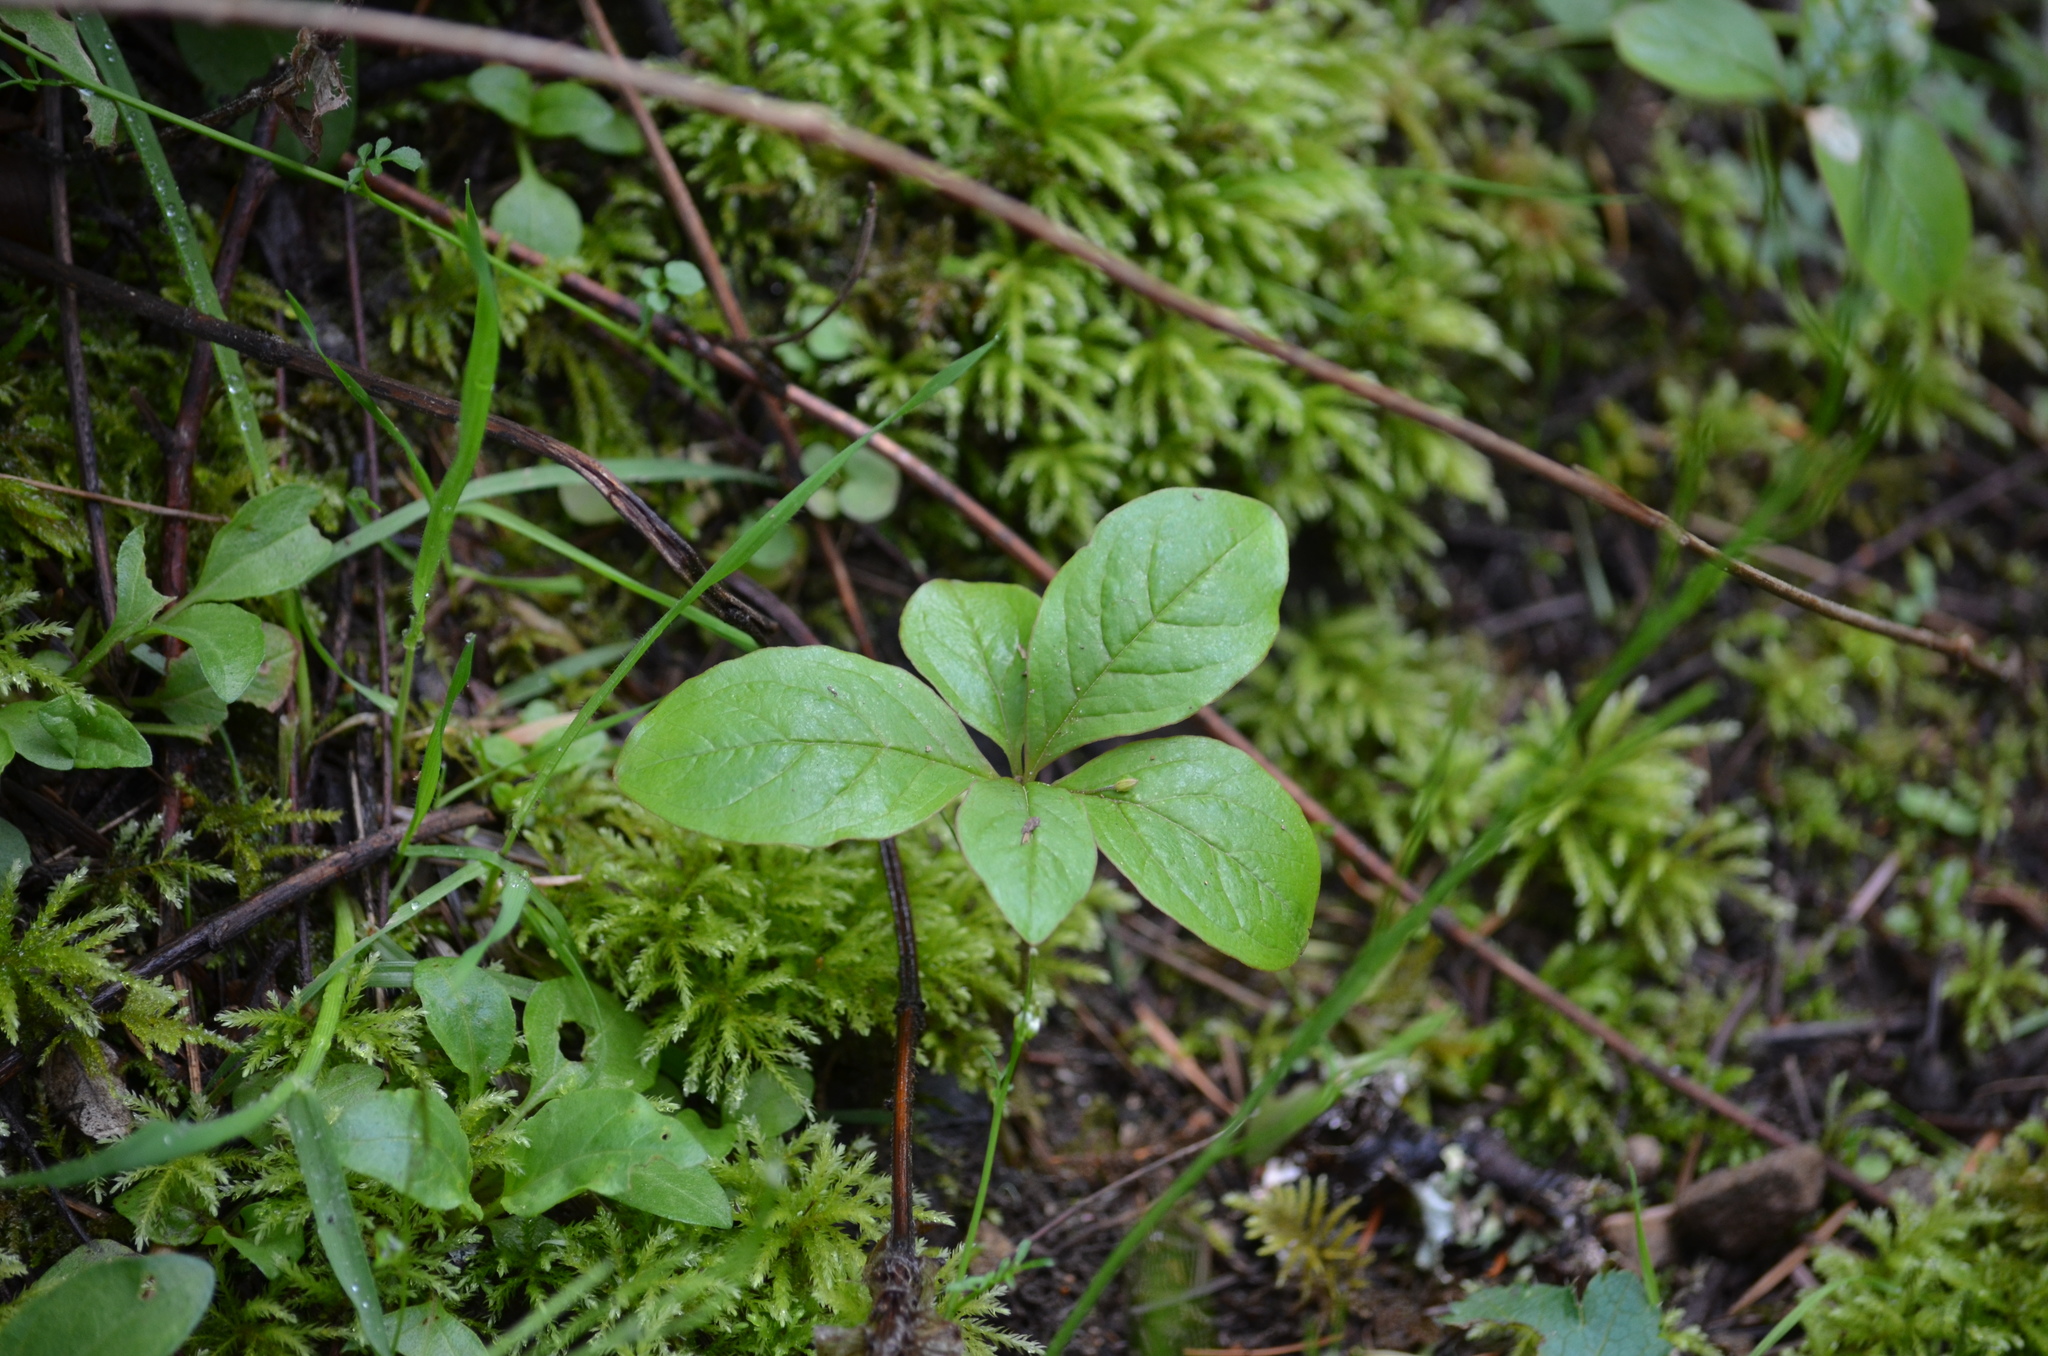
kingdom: Plantae
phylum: Tracheophyta
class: Magnoliopsida
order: Ericales
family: Primulaceae
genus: Lysimachia
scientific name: Lysimachia latifolia
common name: Pacific starflower
